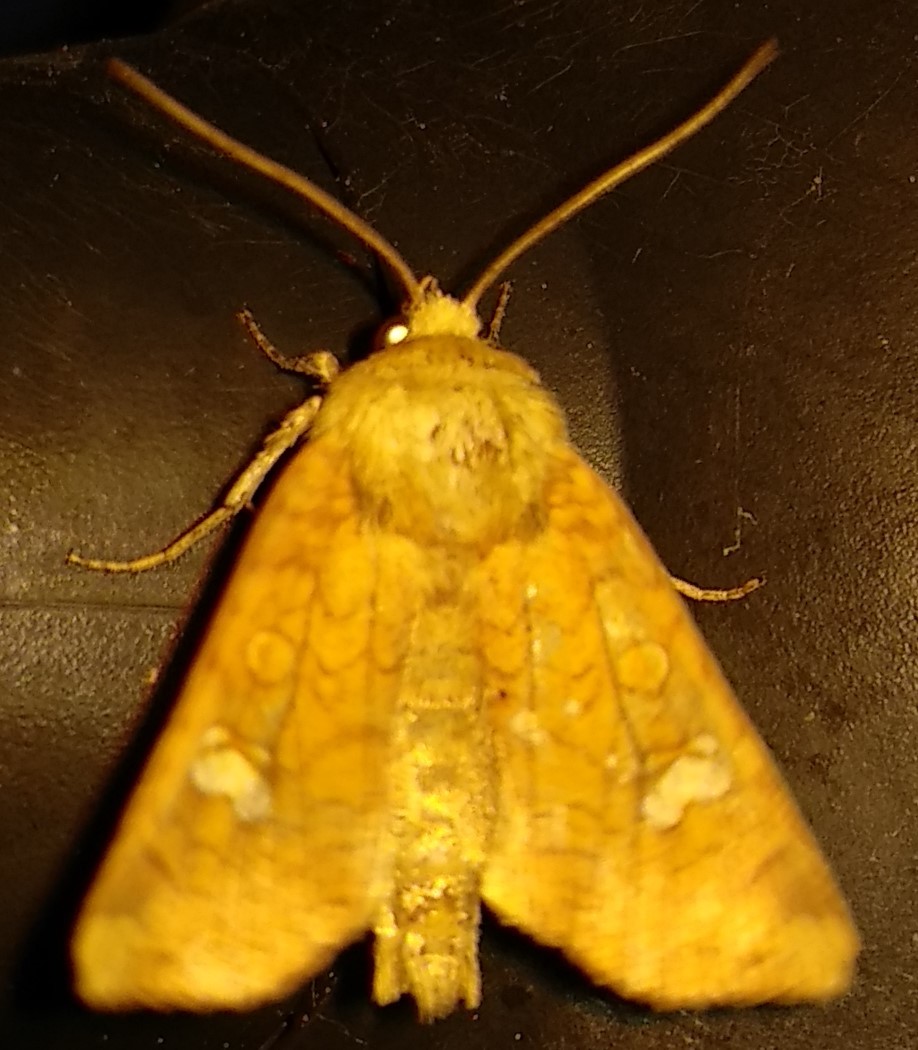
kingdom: Animalia
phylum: Arthropoda
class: Insecta
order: Lepidoptera
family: Noctuidae
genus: Amphipoea
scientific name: Amphipoea americana
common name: American ear moth
